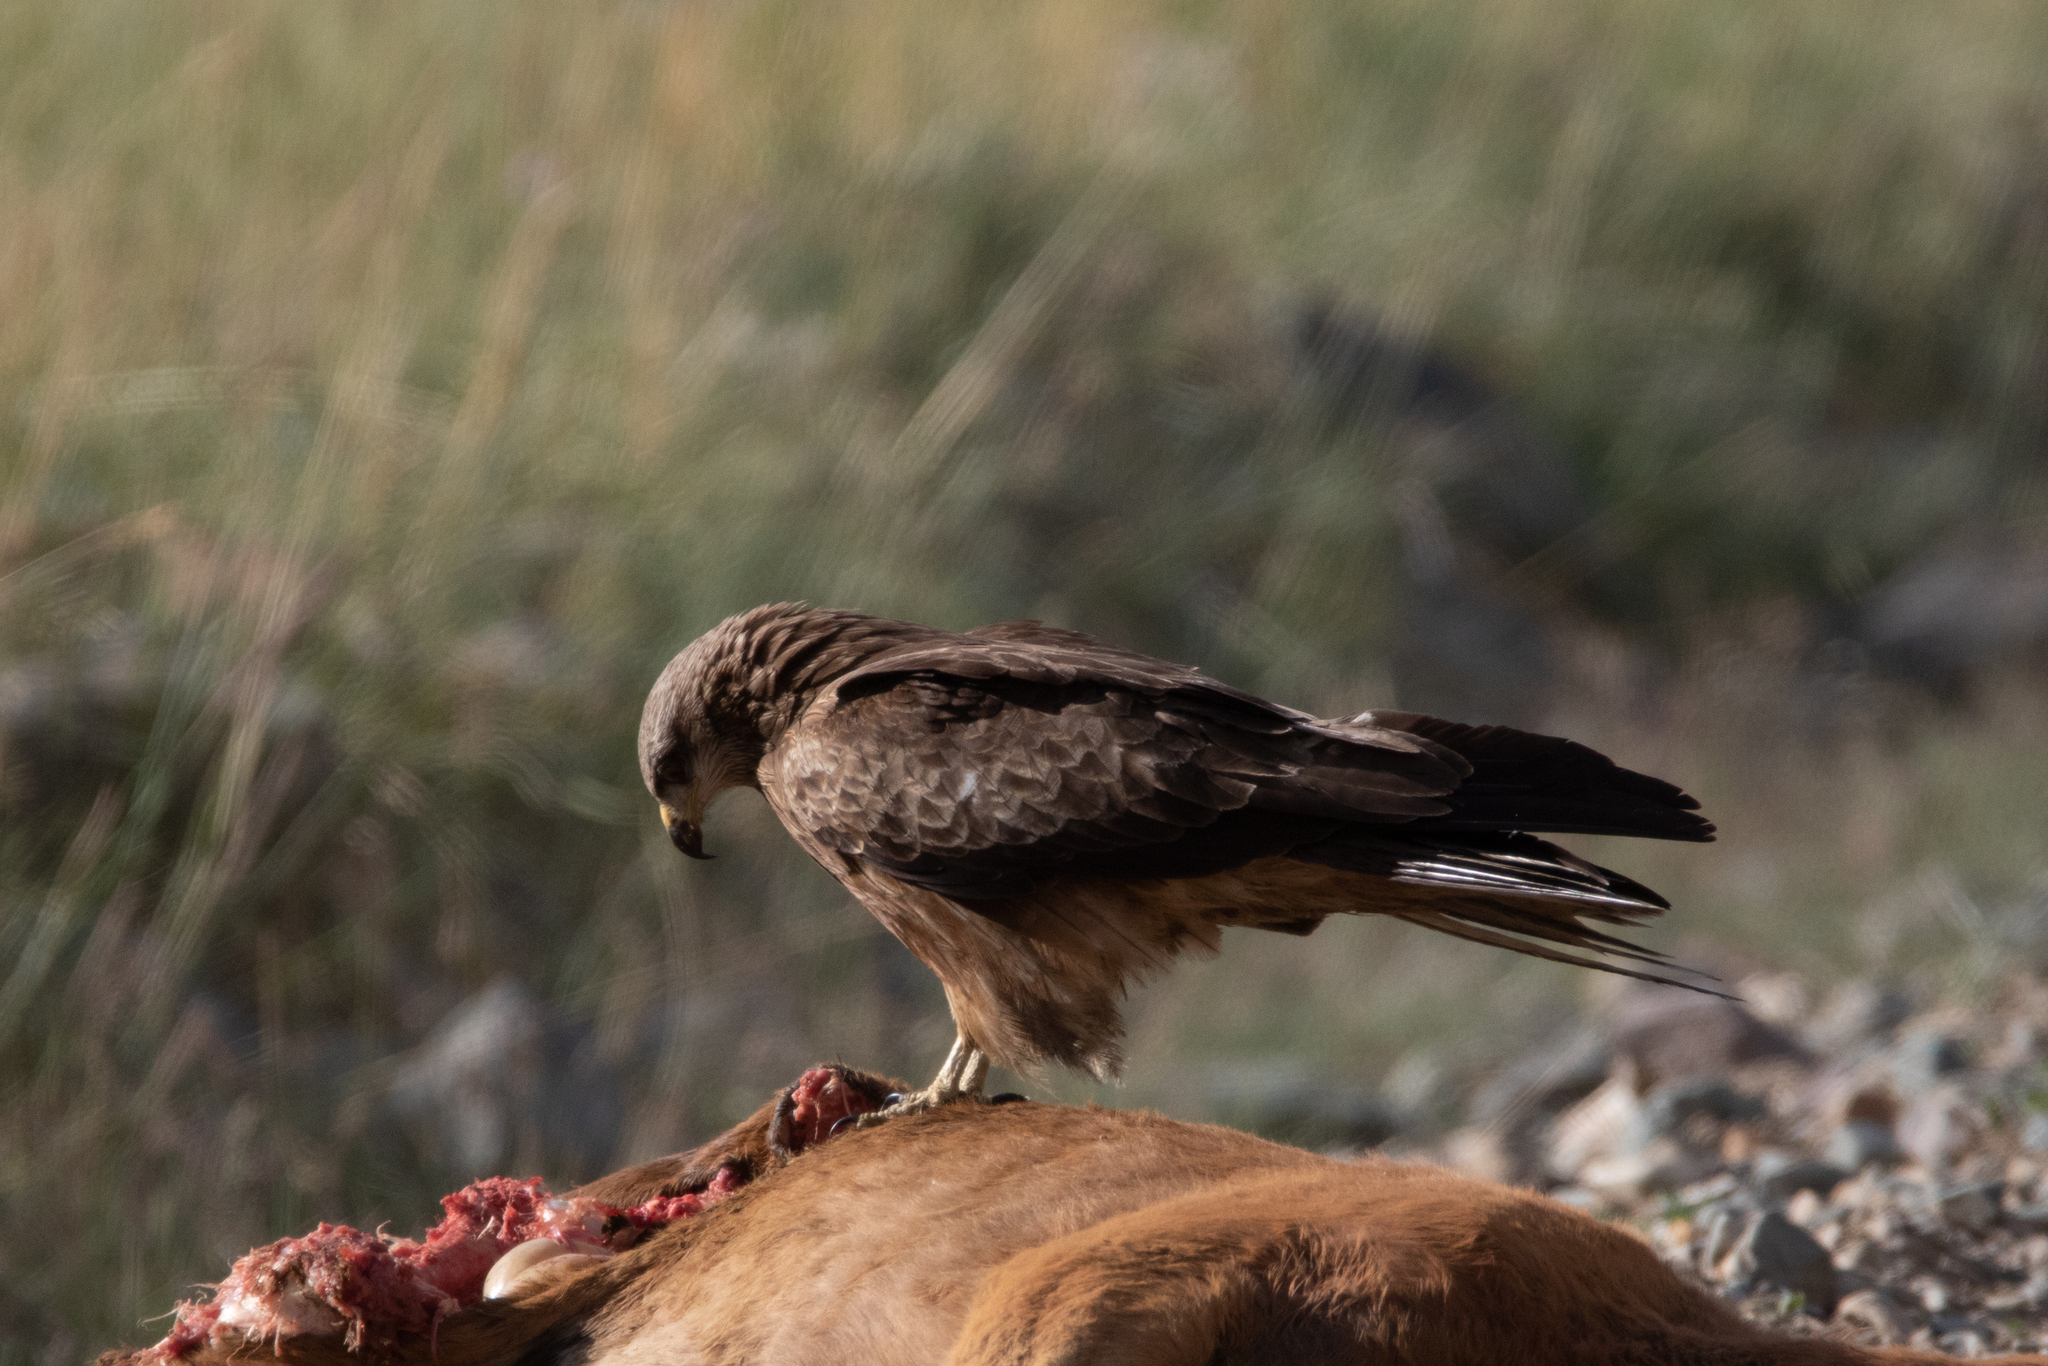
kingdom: Animalia
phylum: Chordata
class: Aves
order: Accipitriformes
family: Accipitridae
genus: Milvus
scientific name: Milvus migrans
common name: Black kite
